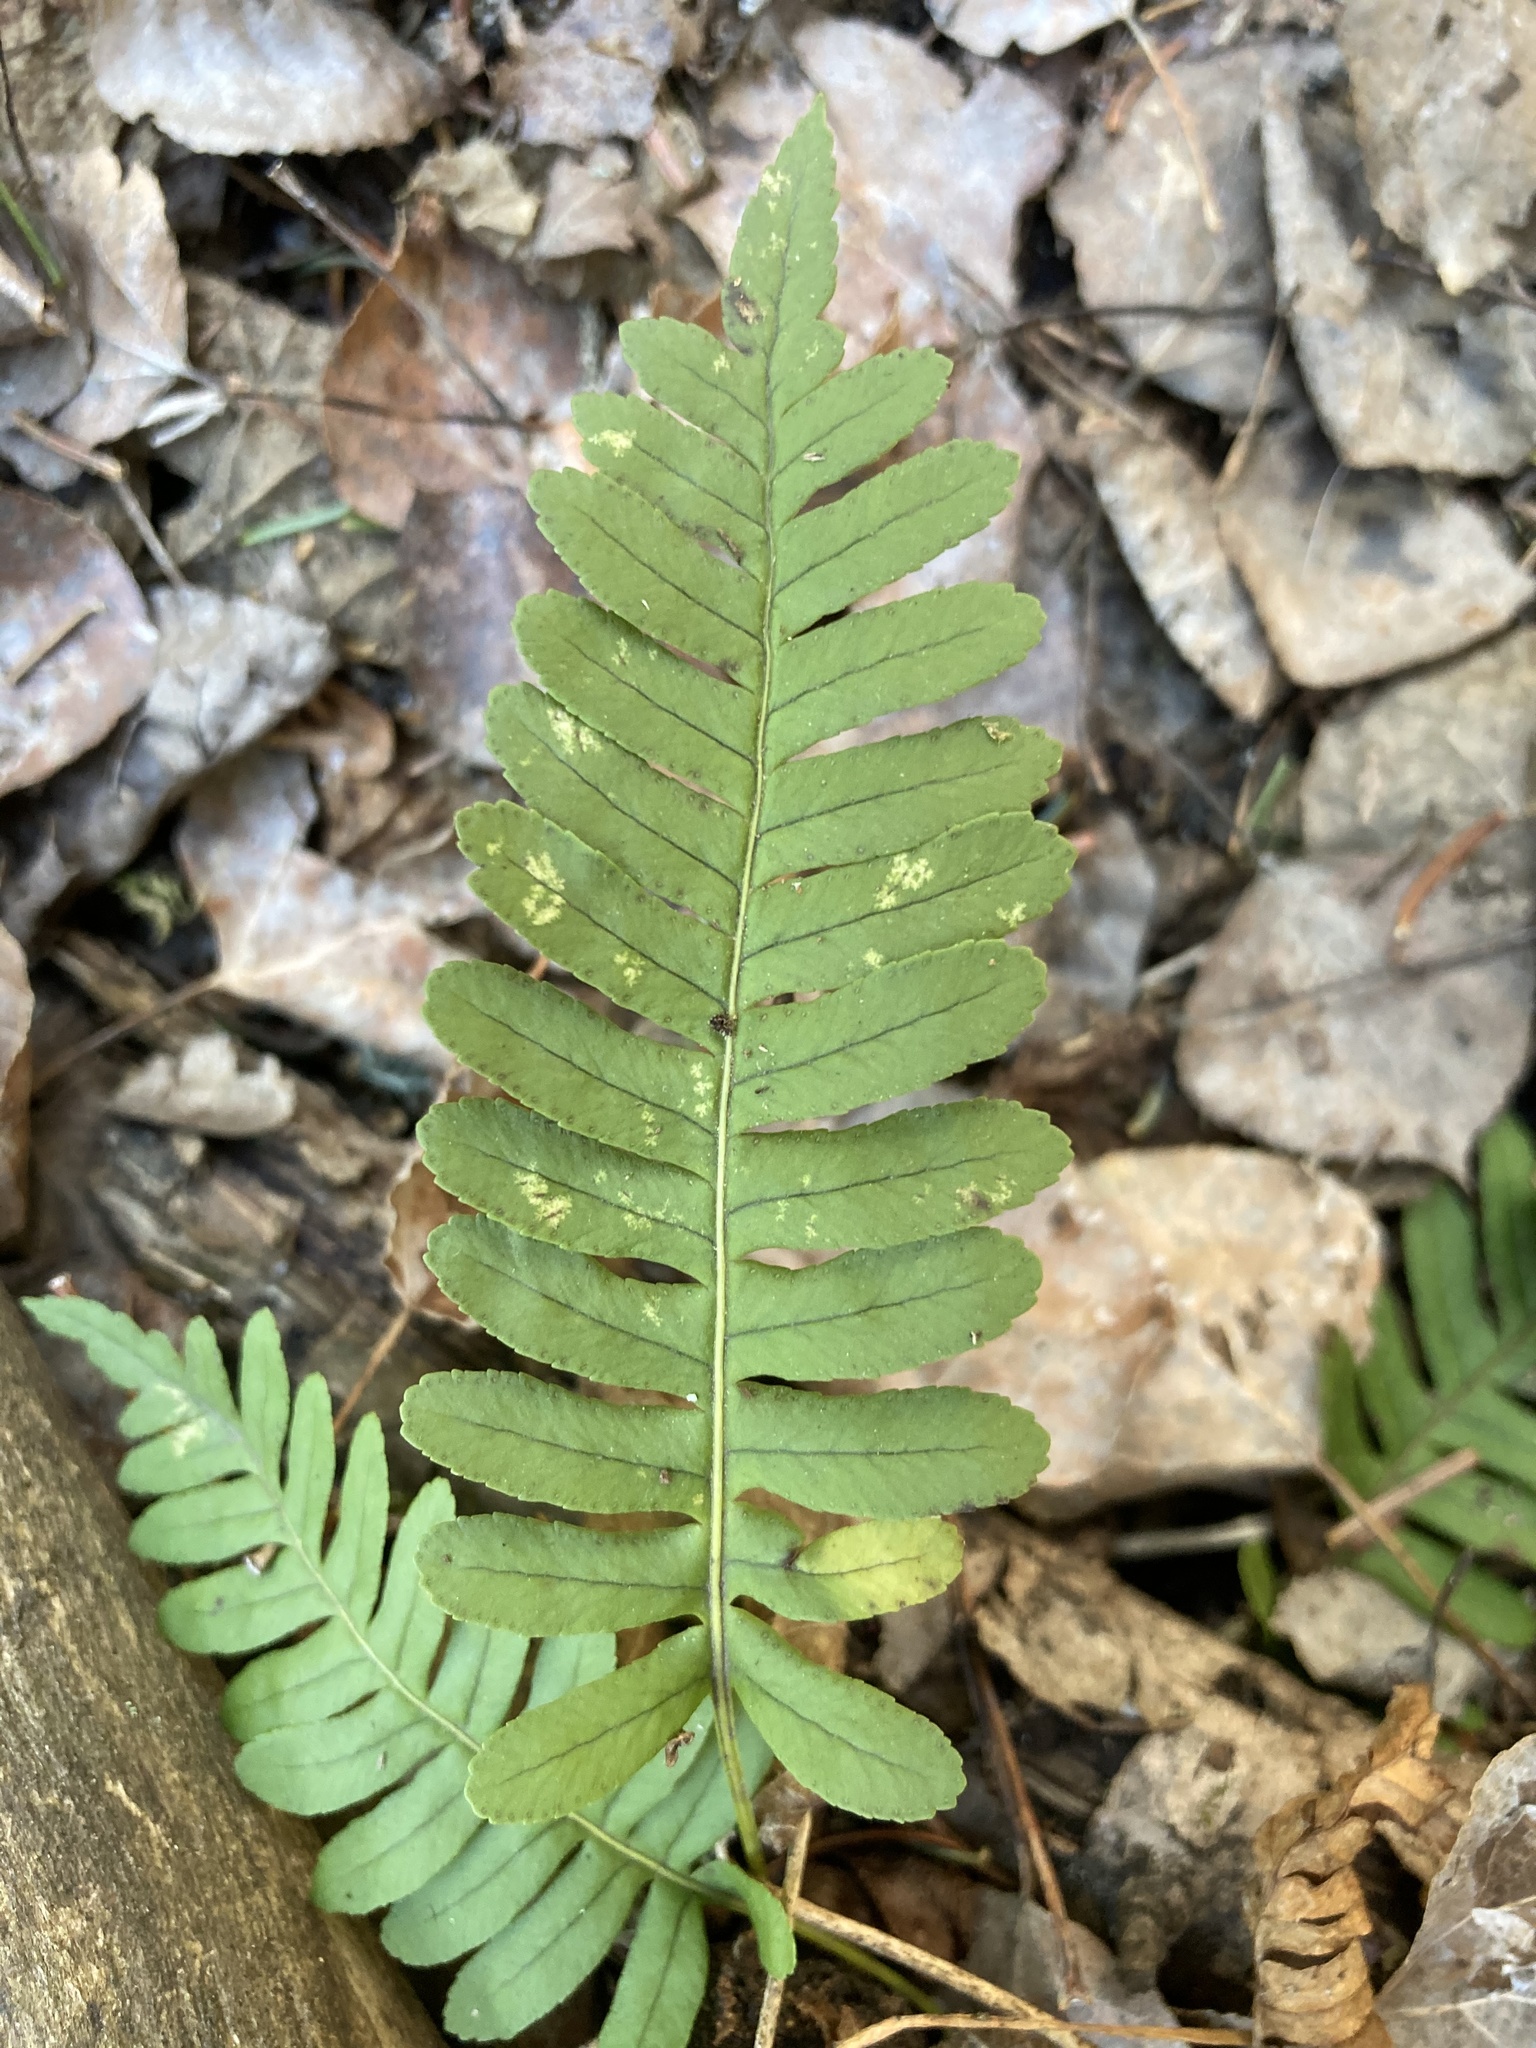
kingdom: Plantae
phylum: Tracheophyta
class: Polypodiopsida
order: Polypodiales
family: Polypodiaceae
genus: Polypodium
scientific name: Polypodium virginianum
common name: American wall fern
